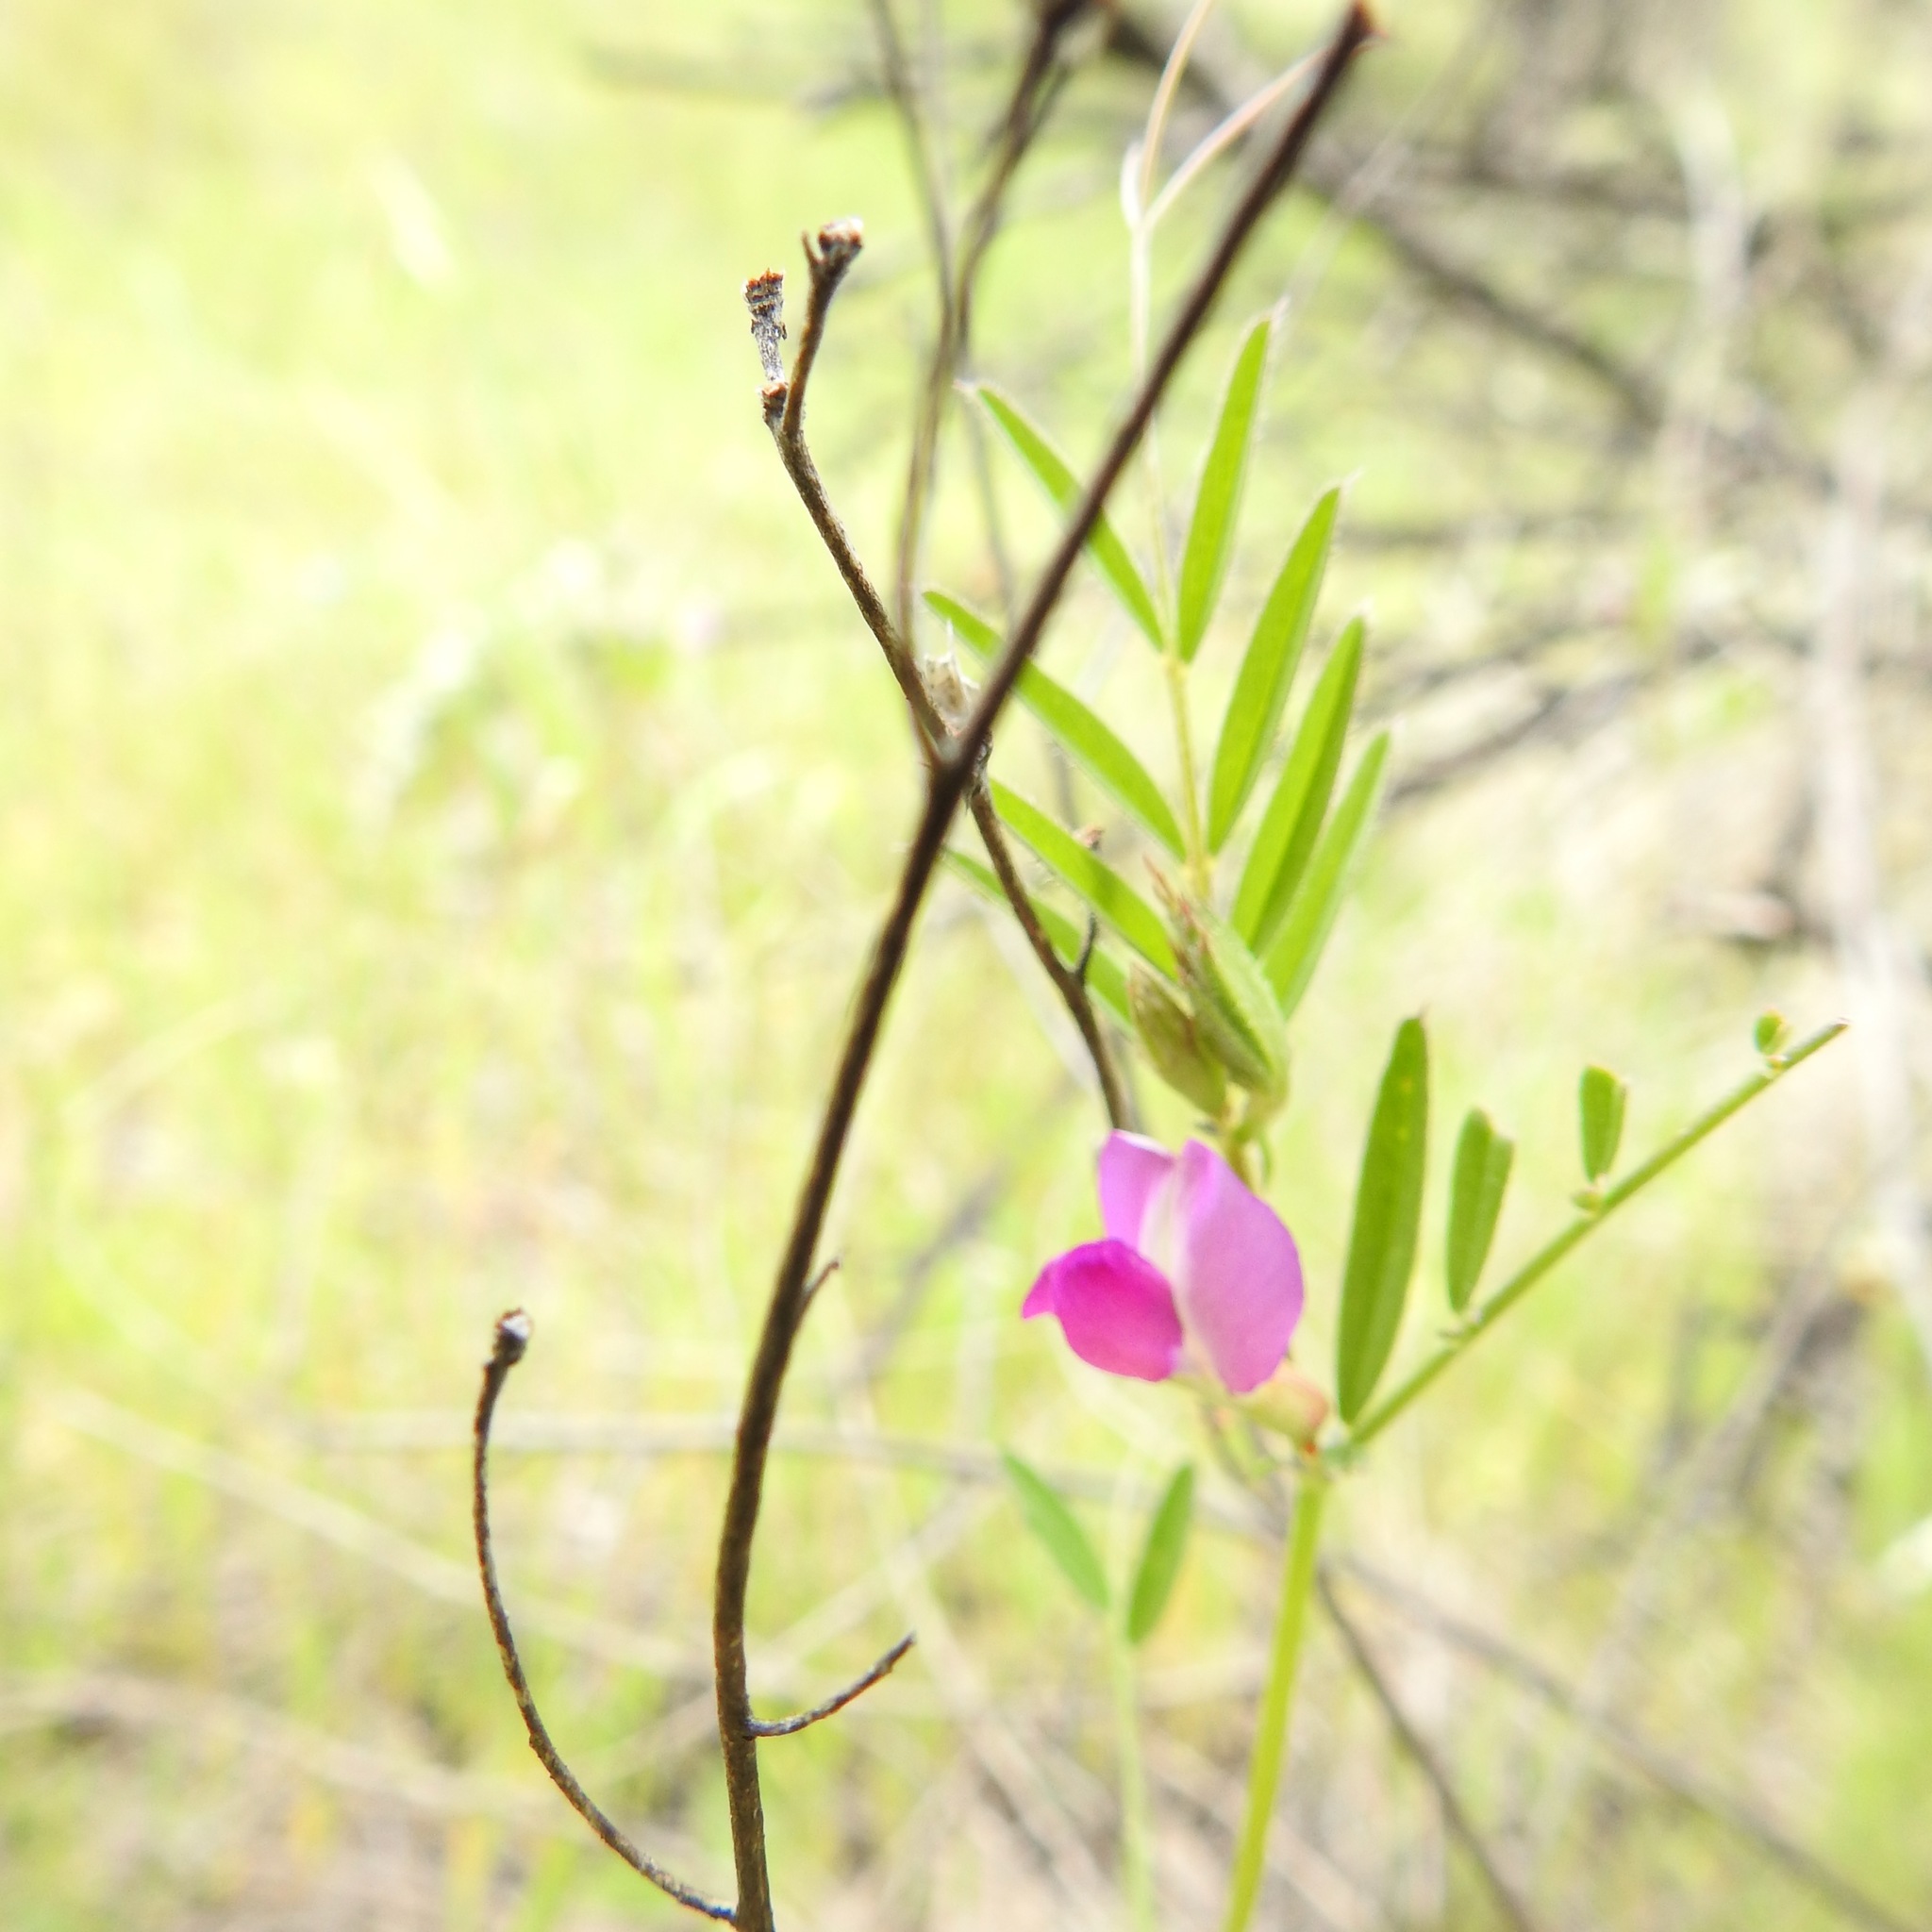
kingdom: Plantae
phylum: Tracheophyta
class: Magnoliopsida
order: Fabales
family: Fabaceae
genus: Vicia
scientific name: Vicia sativa
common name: Garden vetch
